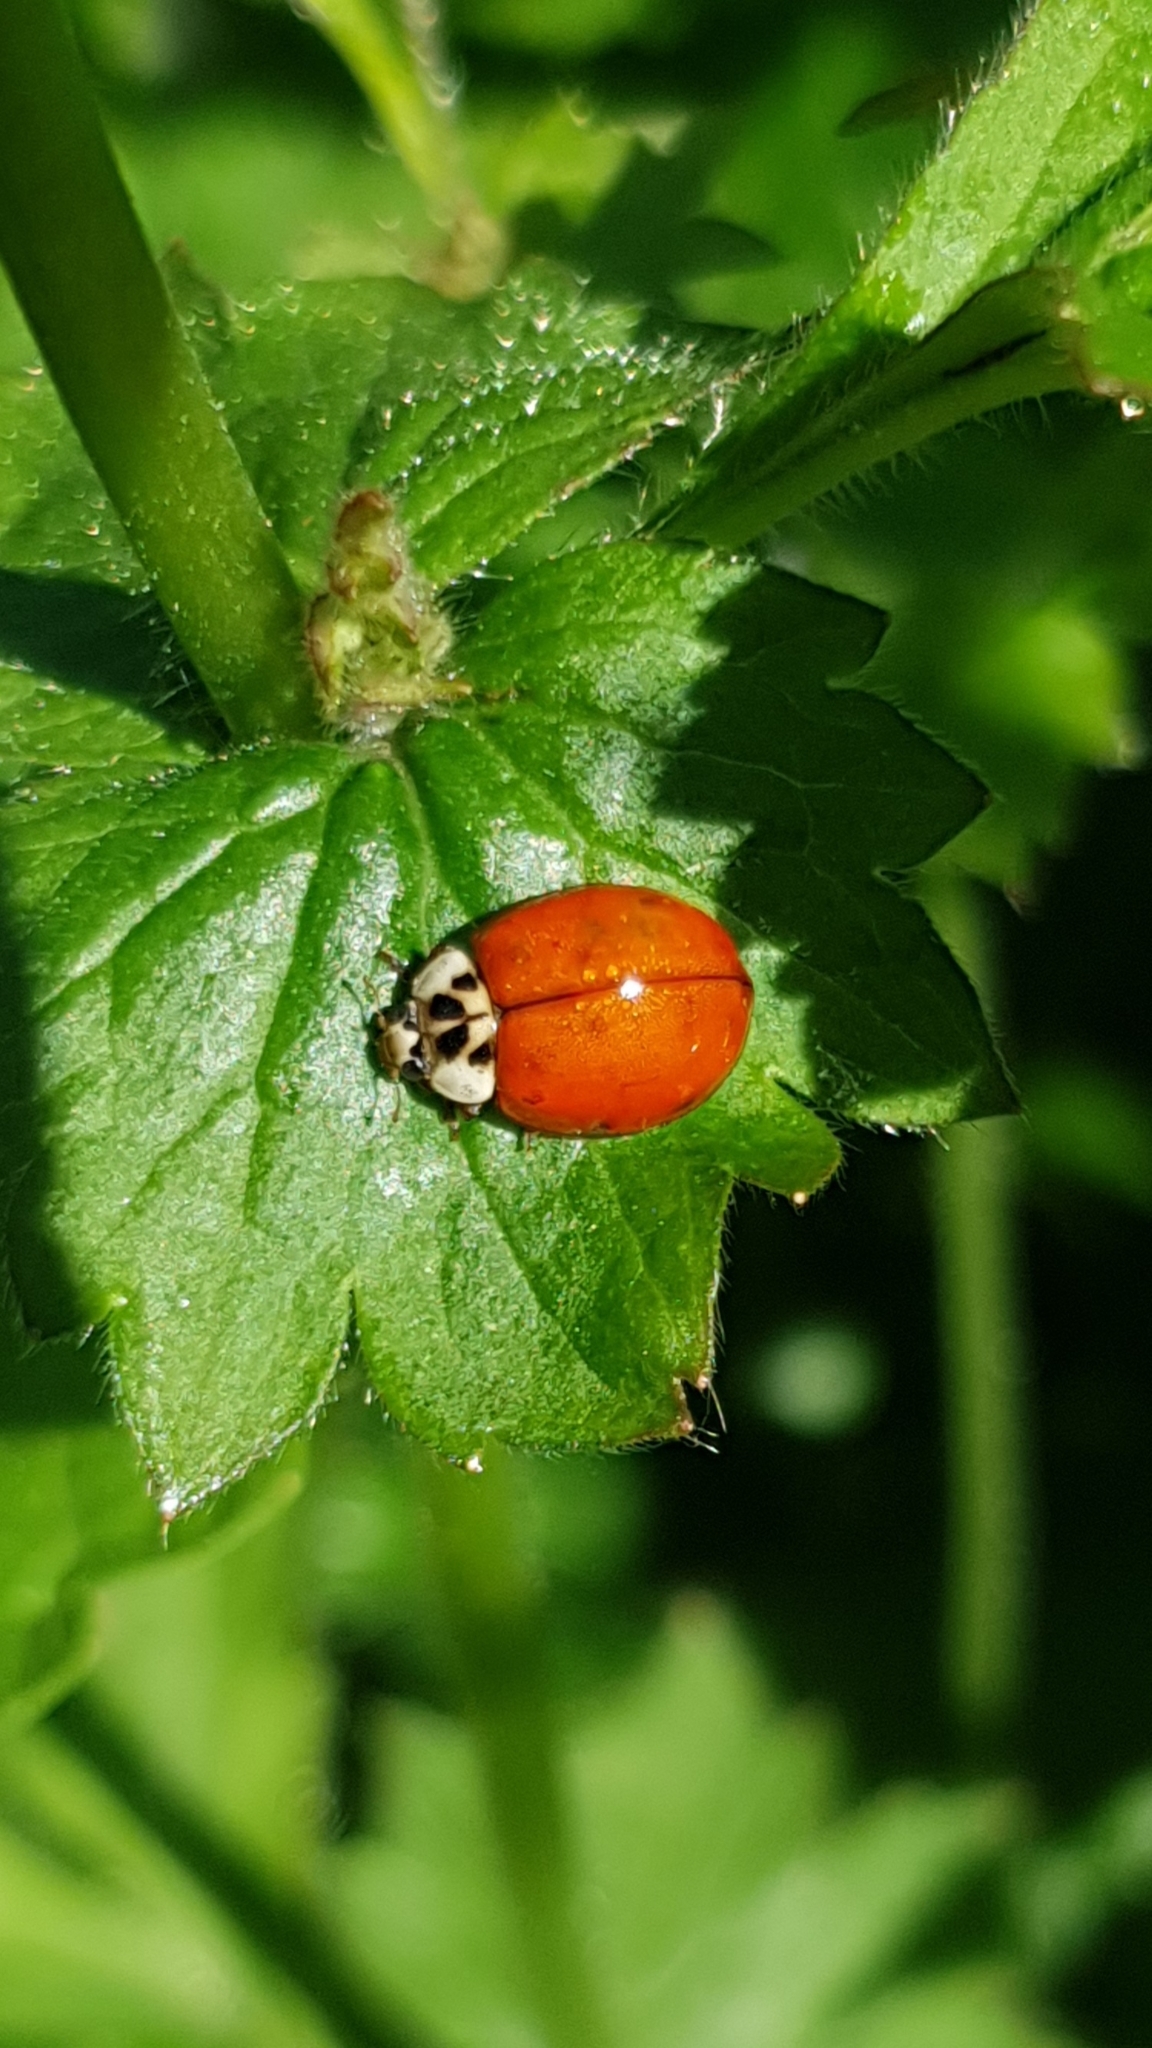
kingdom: Animalia
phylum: Arthropoda
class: Insecta
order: Coleoptera
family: Coccinellidae
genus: Harmonia
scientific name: Harmonia axyridis
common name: Harlequin ladybird
